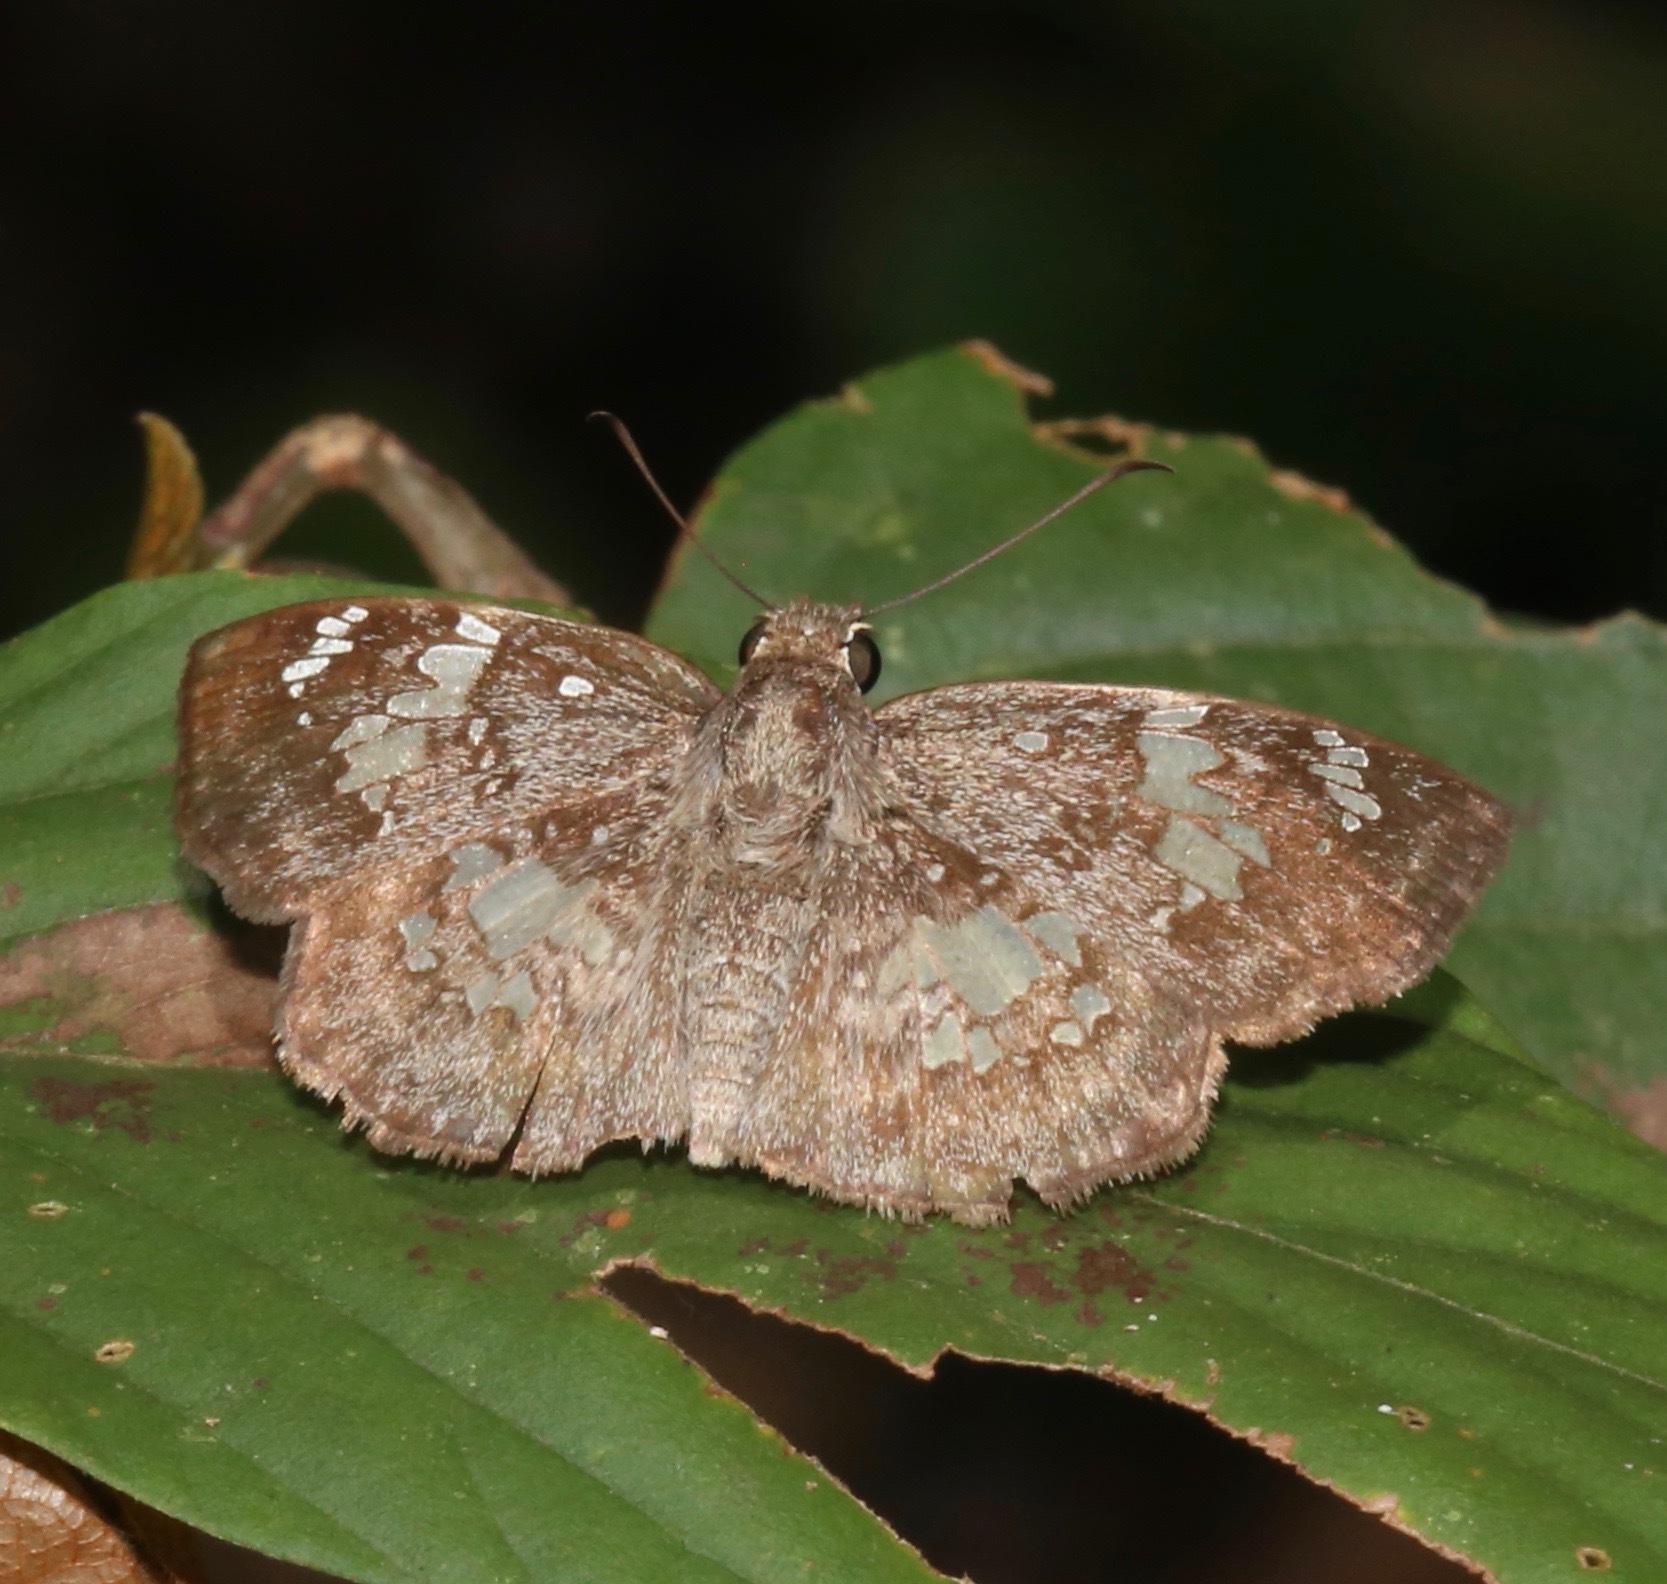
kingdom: Animalia
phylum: Arthropoda
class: Insecta
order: Lepidoptera
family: Hesperiidae
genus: Xenophanes
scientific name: Xenophanes tryxus
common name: Glassy-winged skipper
